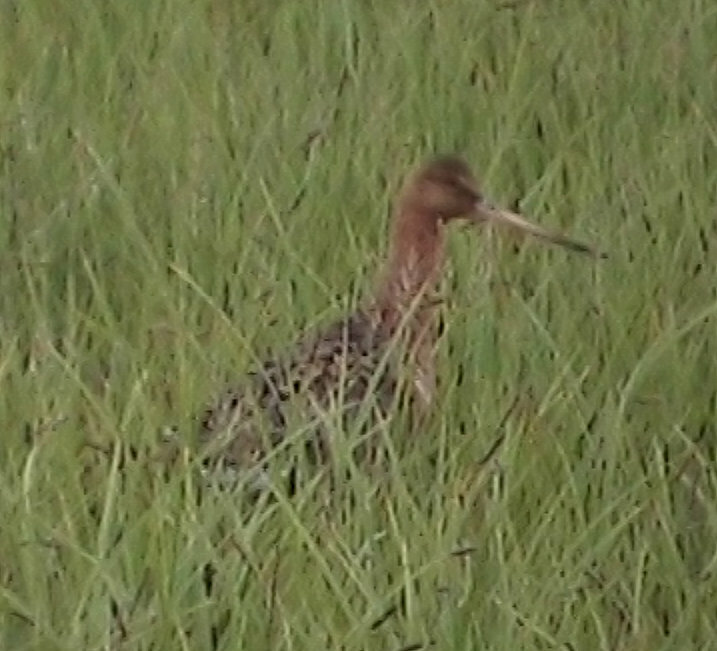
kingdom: Animalia
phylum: Chordata
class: Aves
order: Charadriiformes
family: Scolopacidae
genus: Limosa
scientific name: Limosa limosa
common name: Black-tailed godwit
